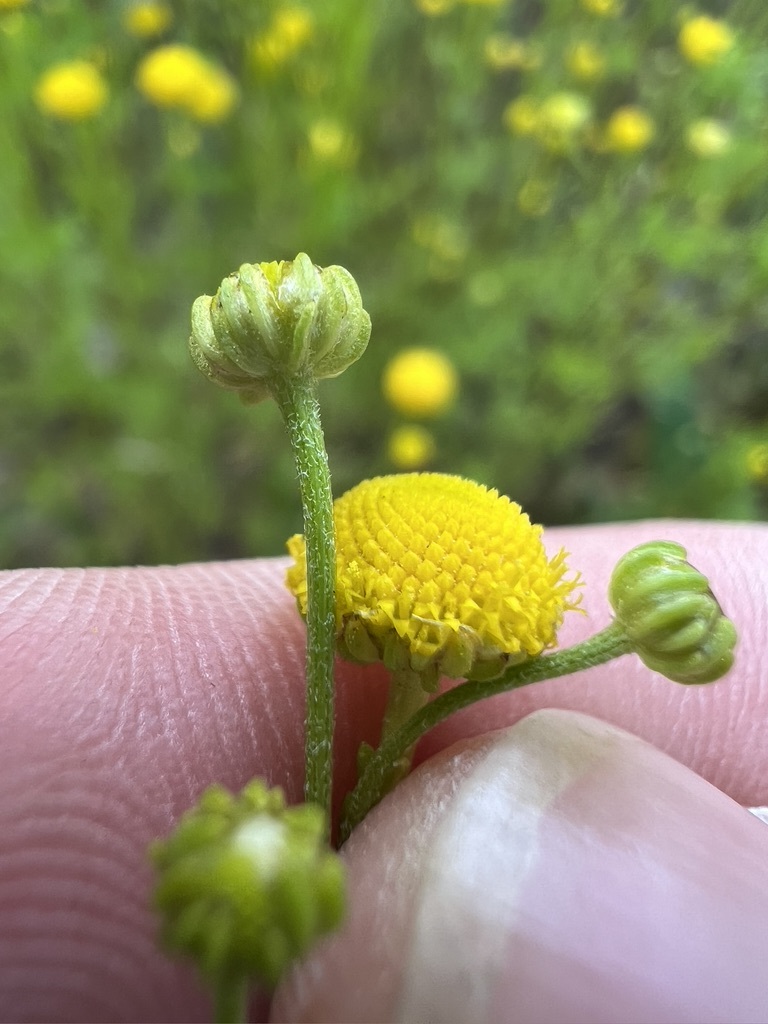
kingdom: Plantae
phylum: Tracheophyta
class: Magnoliopsida
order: Asterales
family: Asteraceae
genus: Oncosiphon
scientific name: Oncosiphon pilulifer
